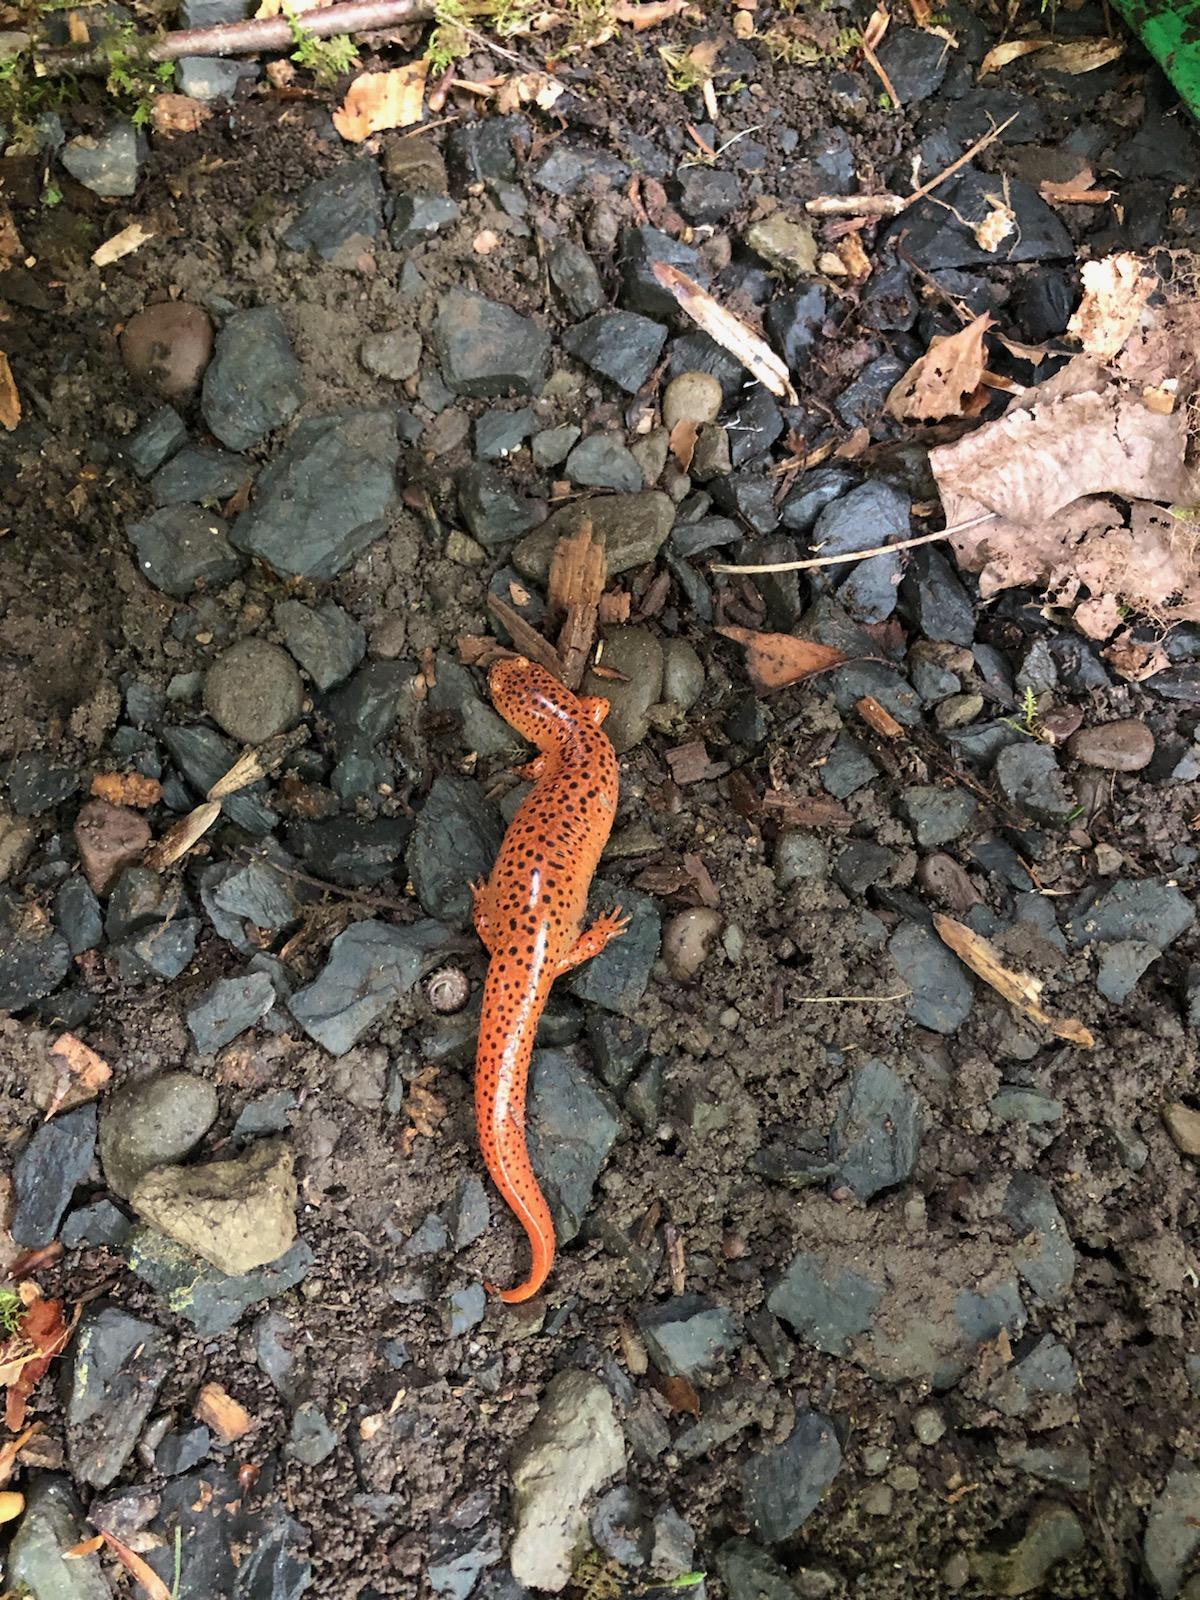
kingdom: Animalia
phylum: Chordata
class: Amphibia
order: Caudata
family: Plethodontidae
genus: Pseudotriton
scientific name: Pseudotriton ruber
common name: Red salamander
